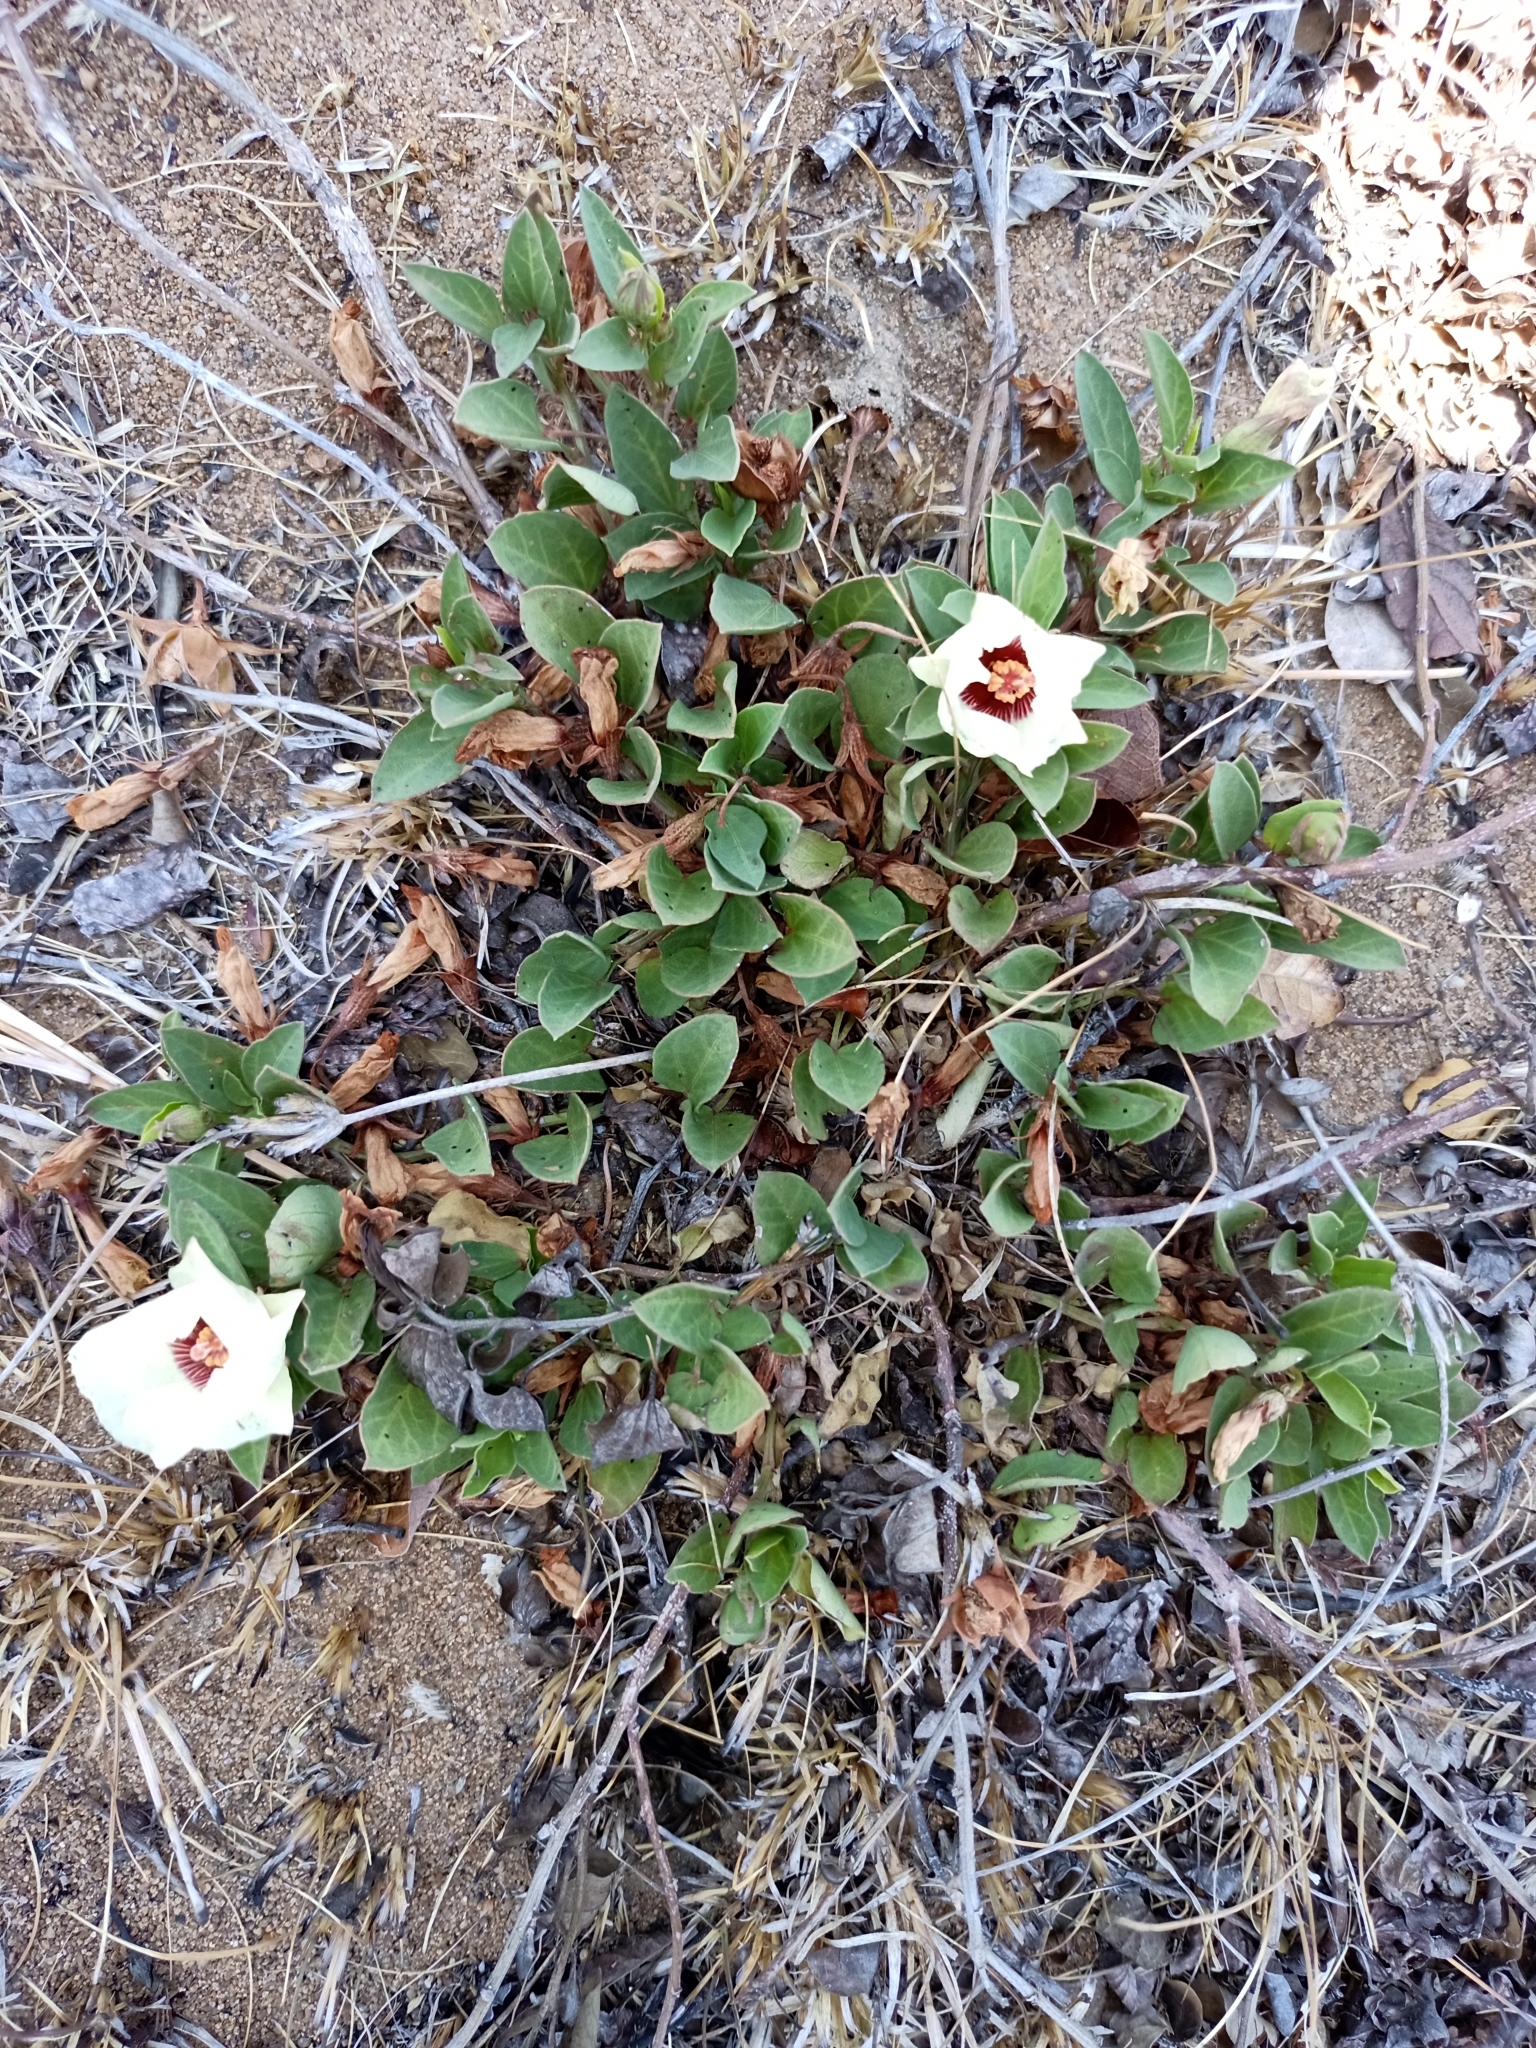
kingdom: Plantae
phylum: Tracheophyta
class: Magnoliopsida
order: Malvales
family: Malvaceae
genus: Cienfuegosia
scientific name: Cienfuegosia rosei
